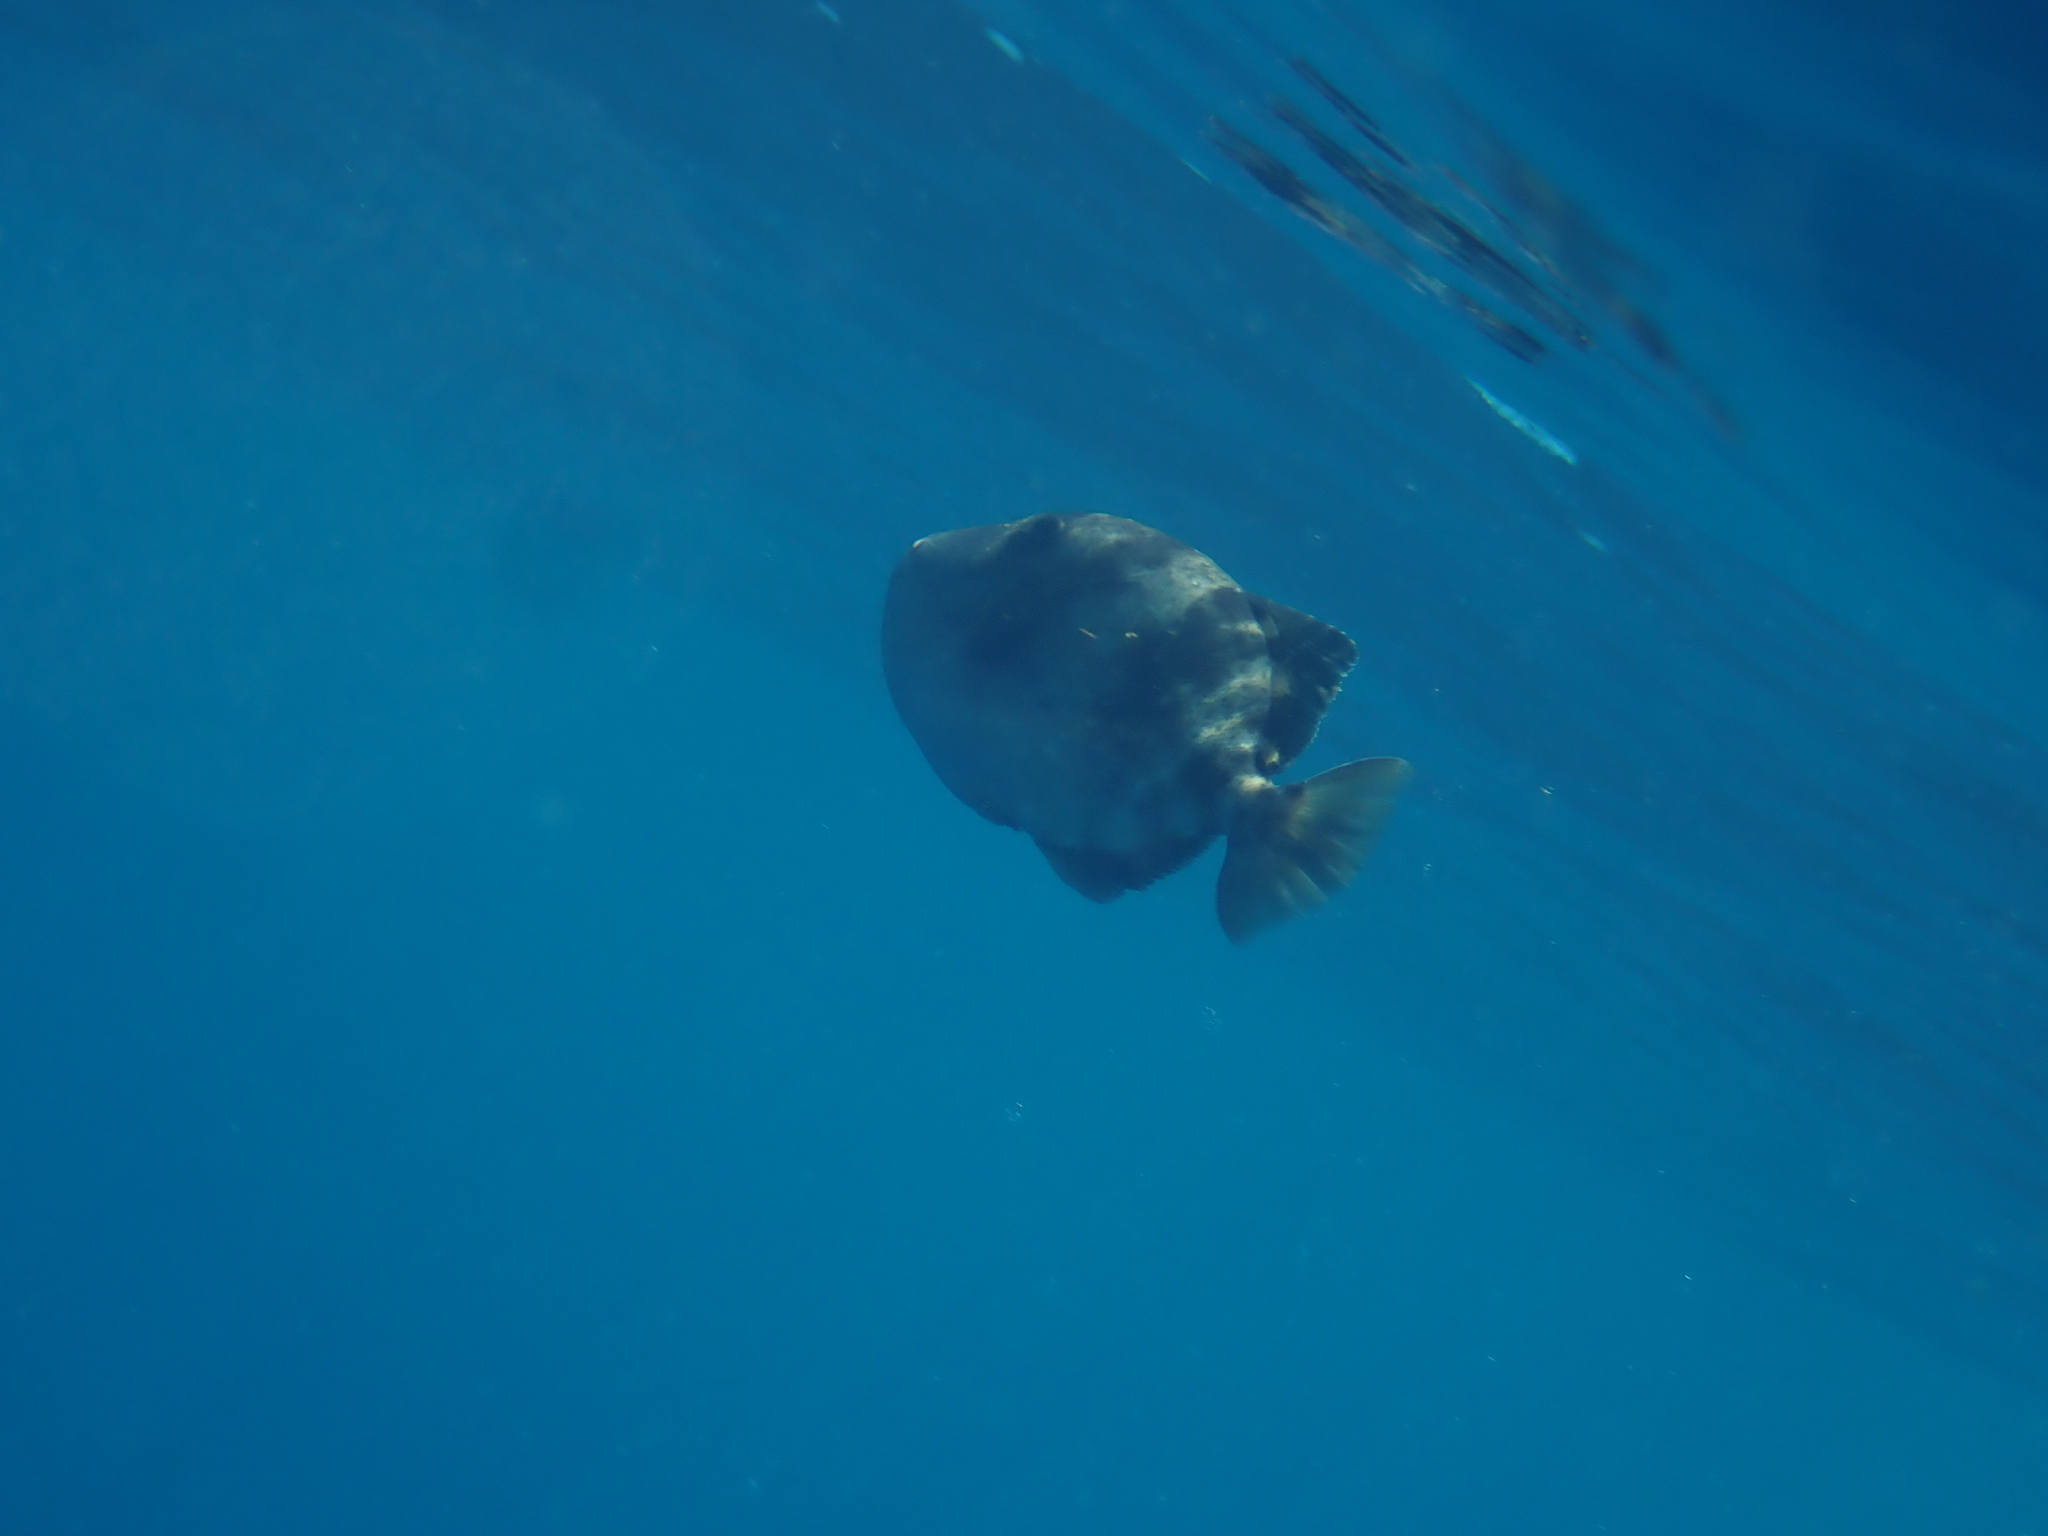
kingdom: Animalia
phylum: Chordata
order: Tetraodontiformes
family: Balistidae
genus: Balistes
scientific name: Balistes capriscus
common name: Grey triggerfish
